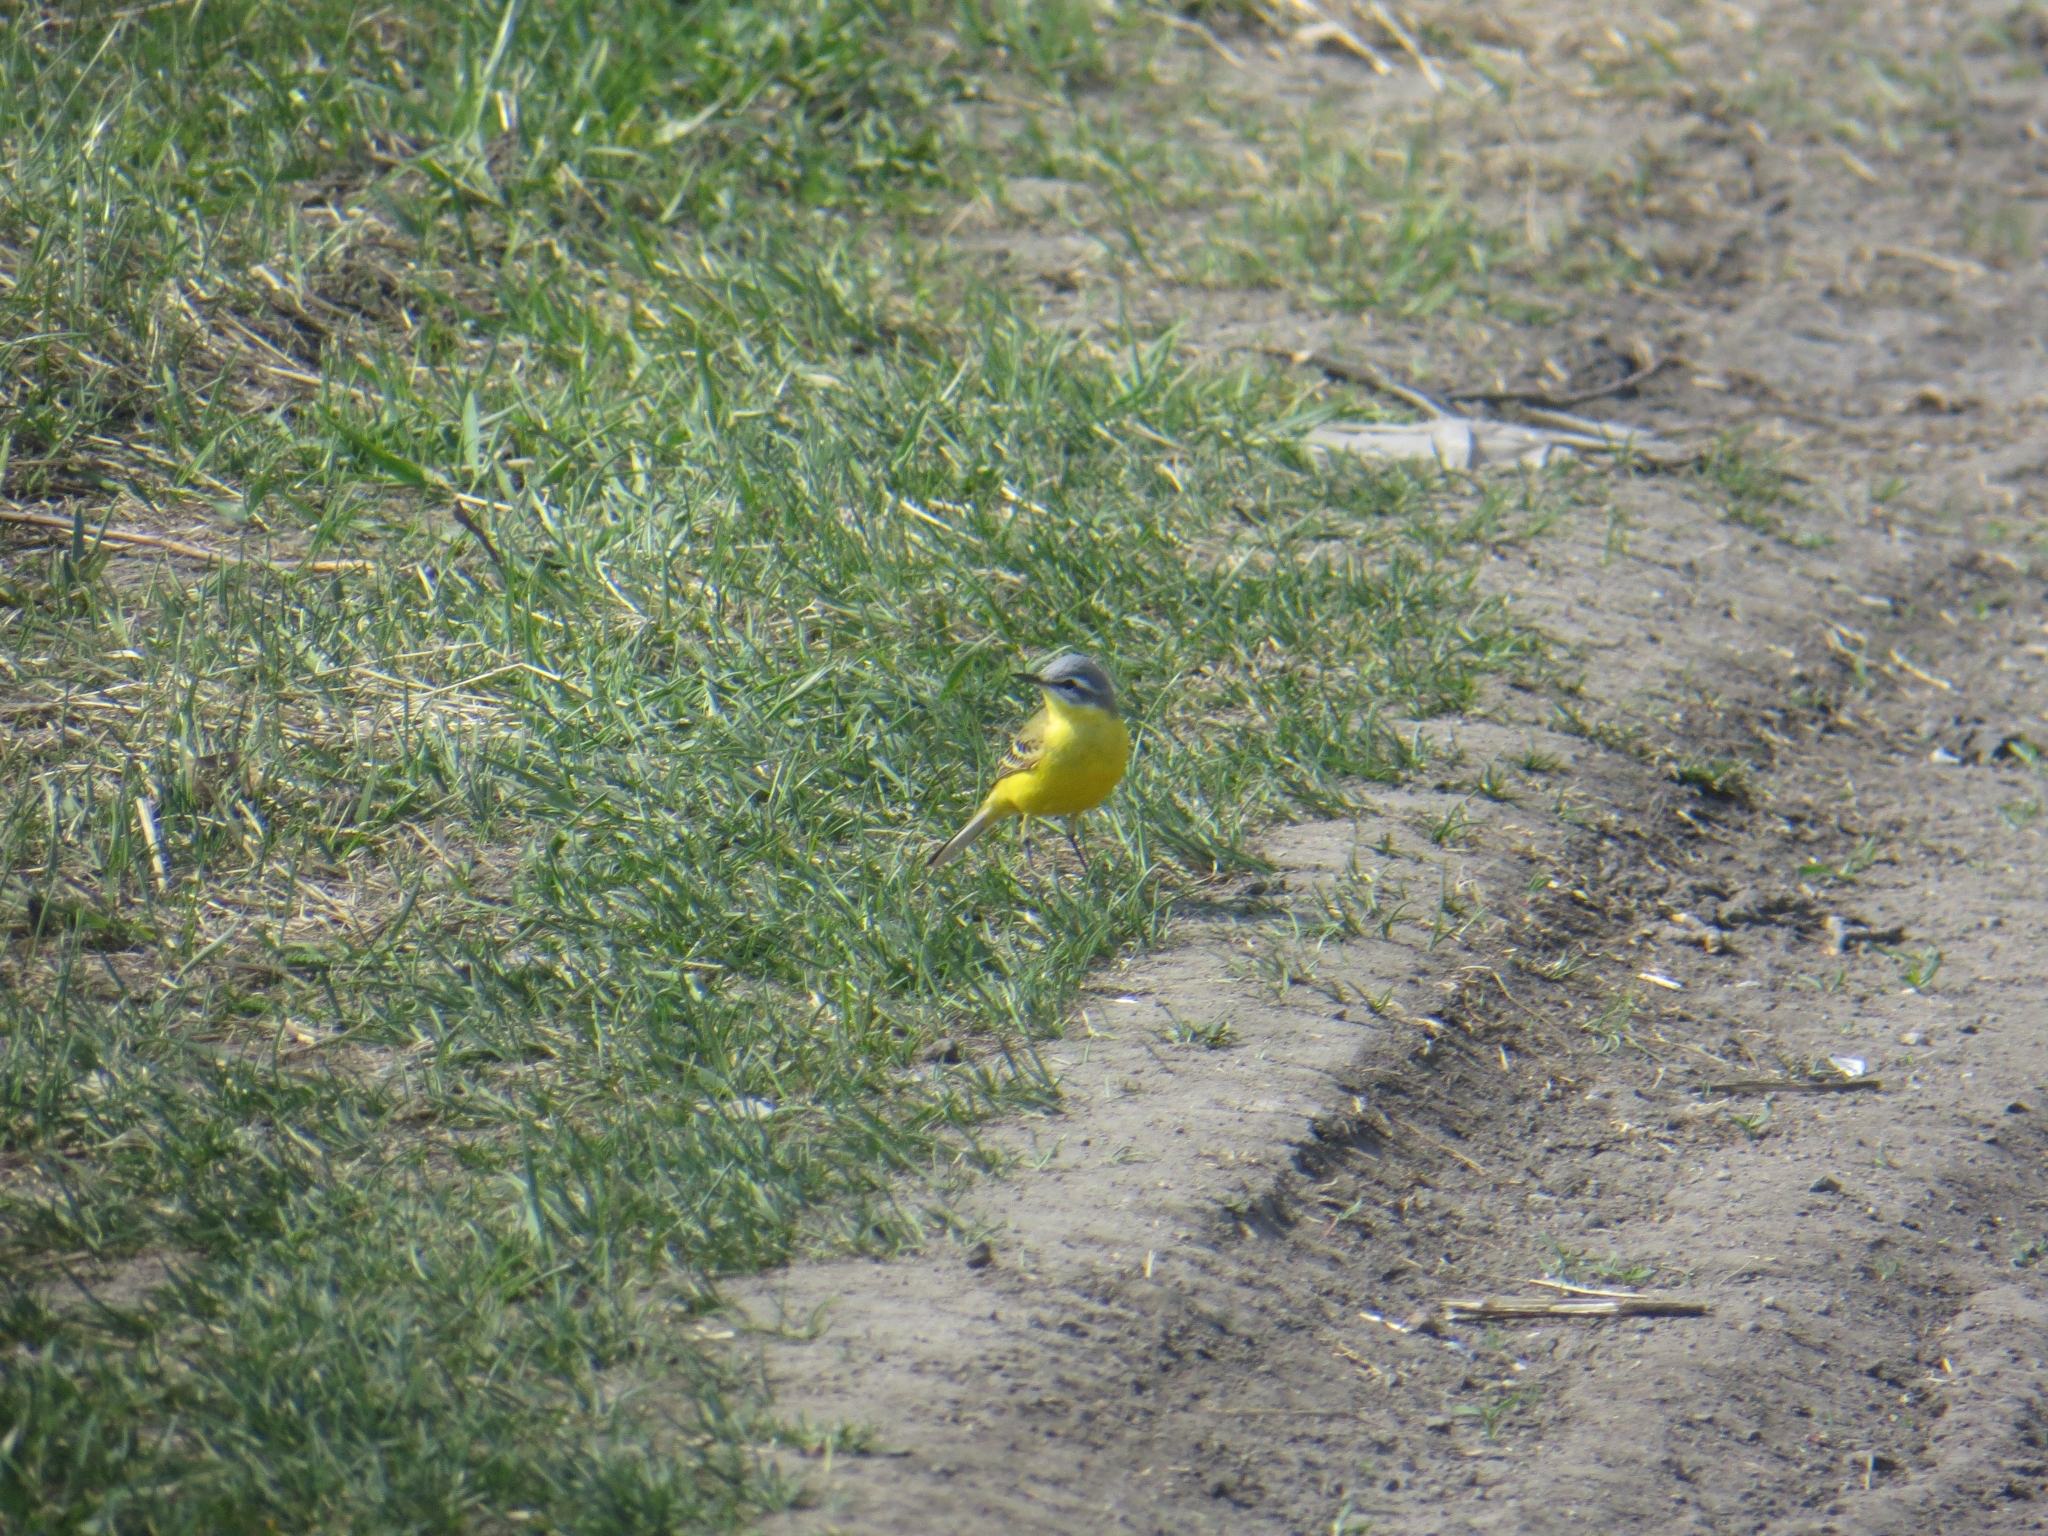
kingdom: Animalia
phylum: Chordata
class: Aves
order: Passeriformes
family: Motacillidae
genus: Motacilla
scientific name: Motacilla flava
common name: Western yellow wagtail
